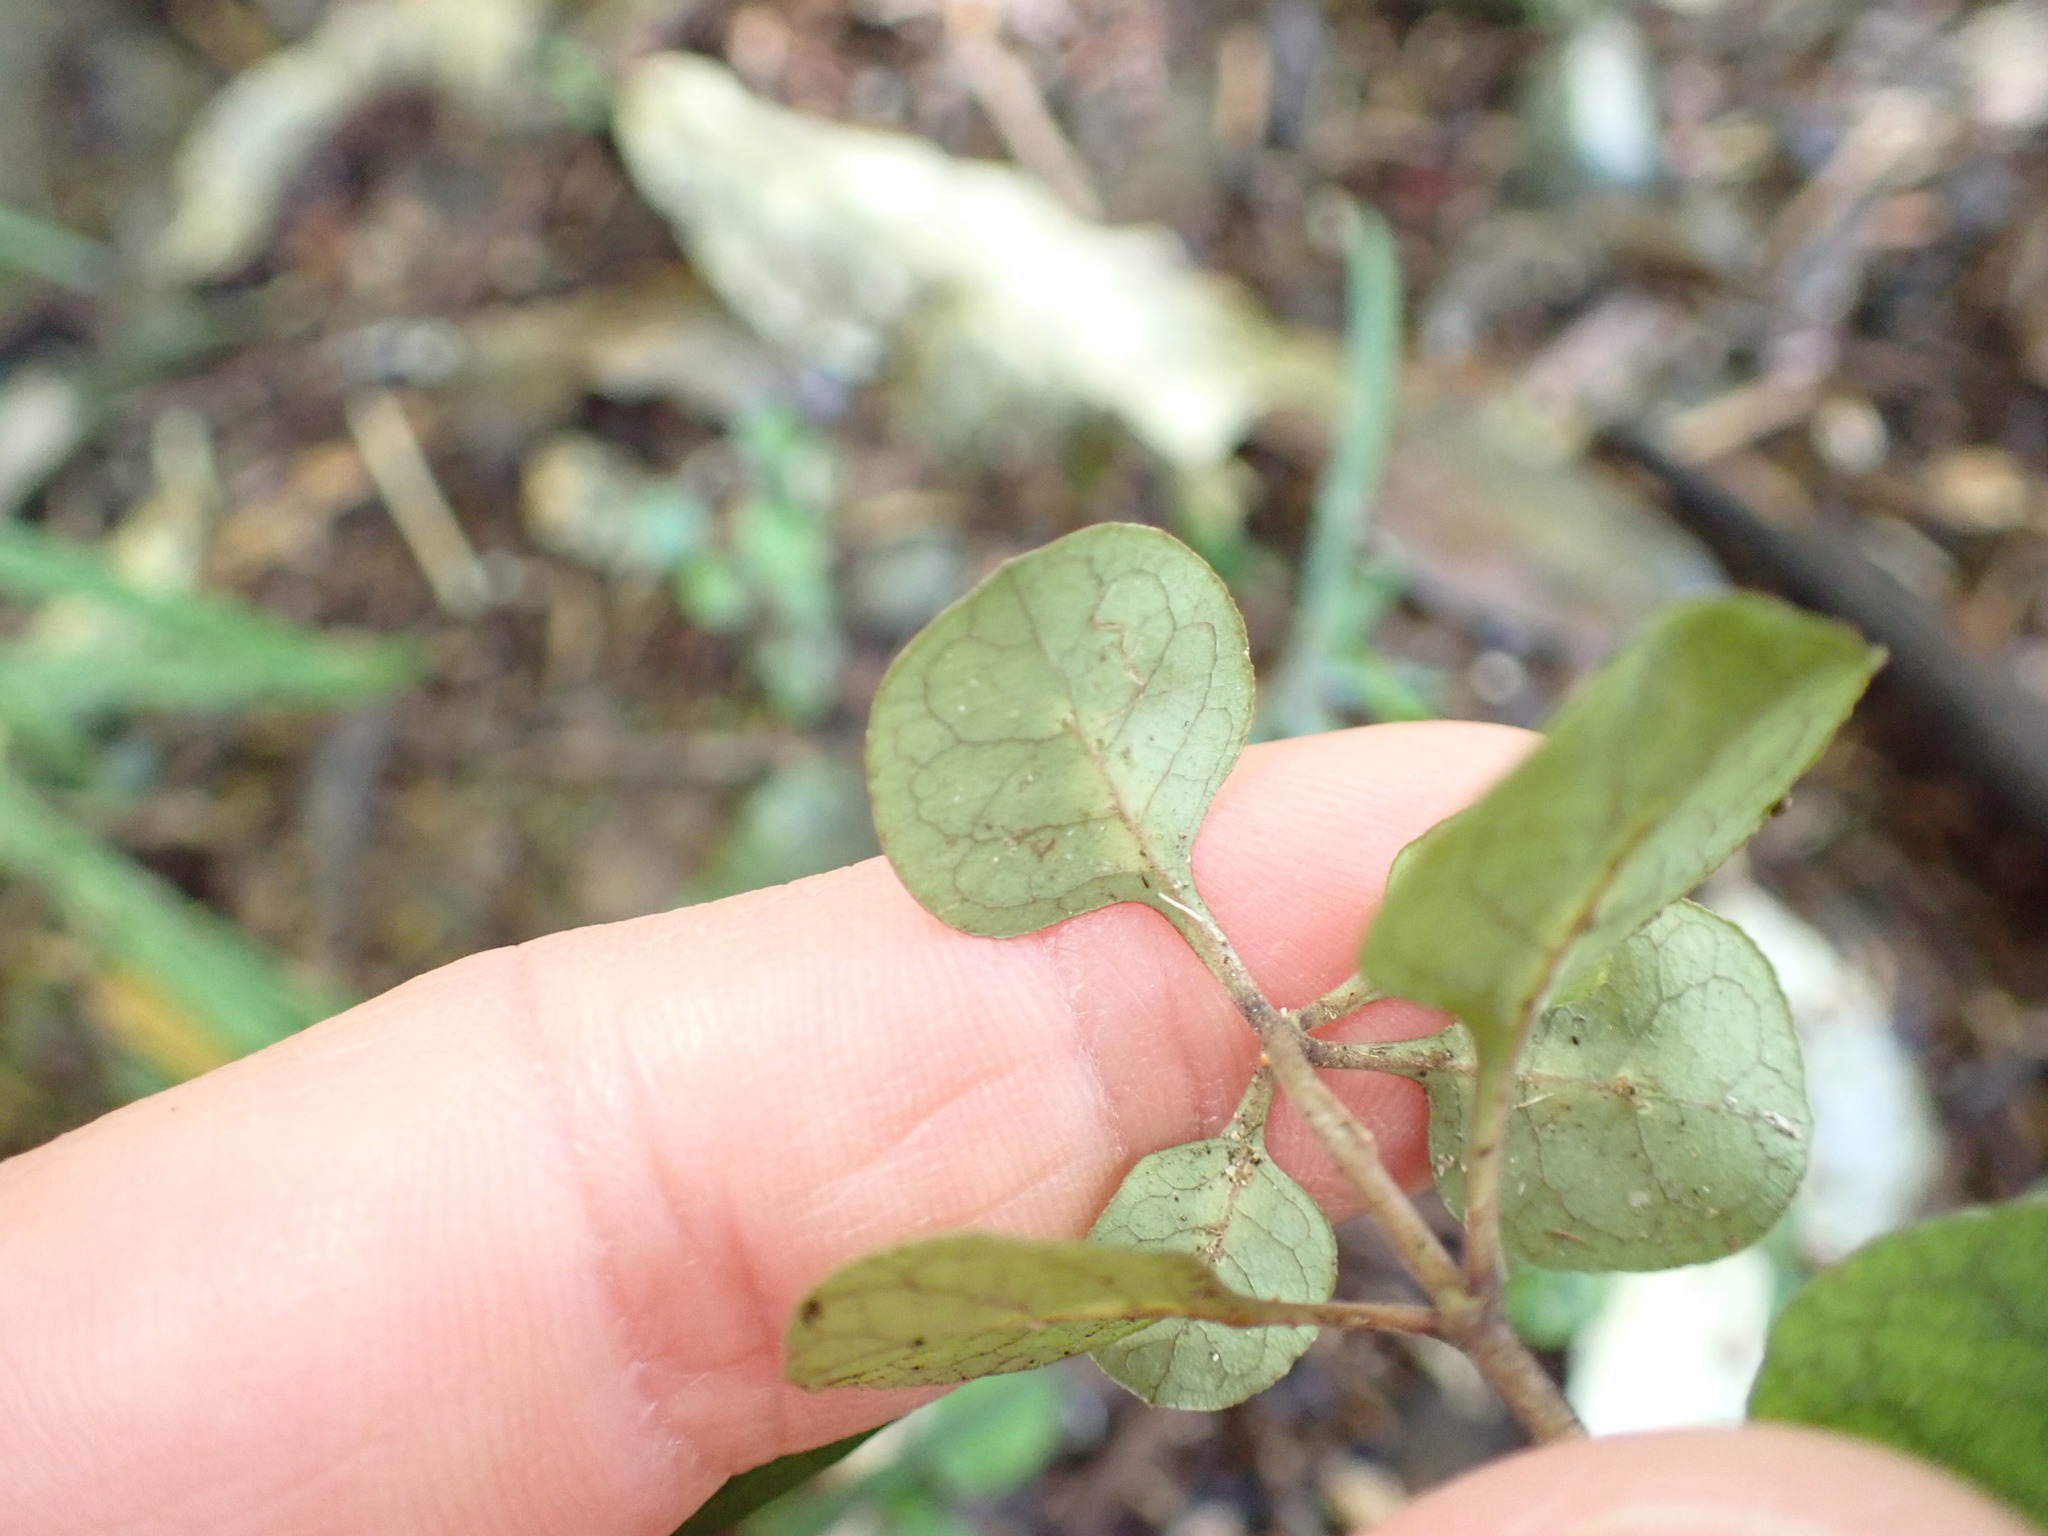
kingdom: Plantae
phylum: Tracheophyta
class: Magnoliopsida
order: Gentianales
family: Rubiaceae
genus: Coprosma
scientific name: Coprosma tenuicaulis
